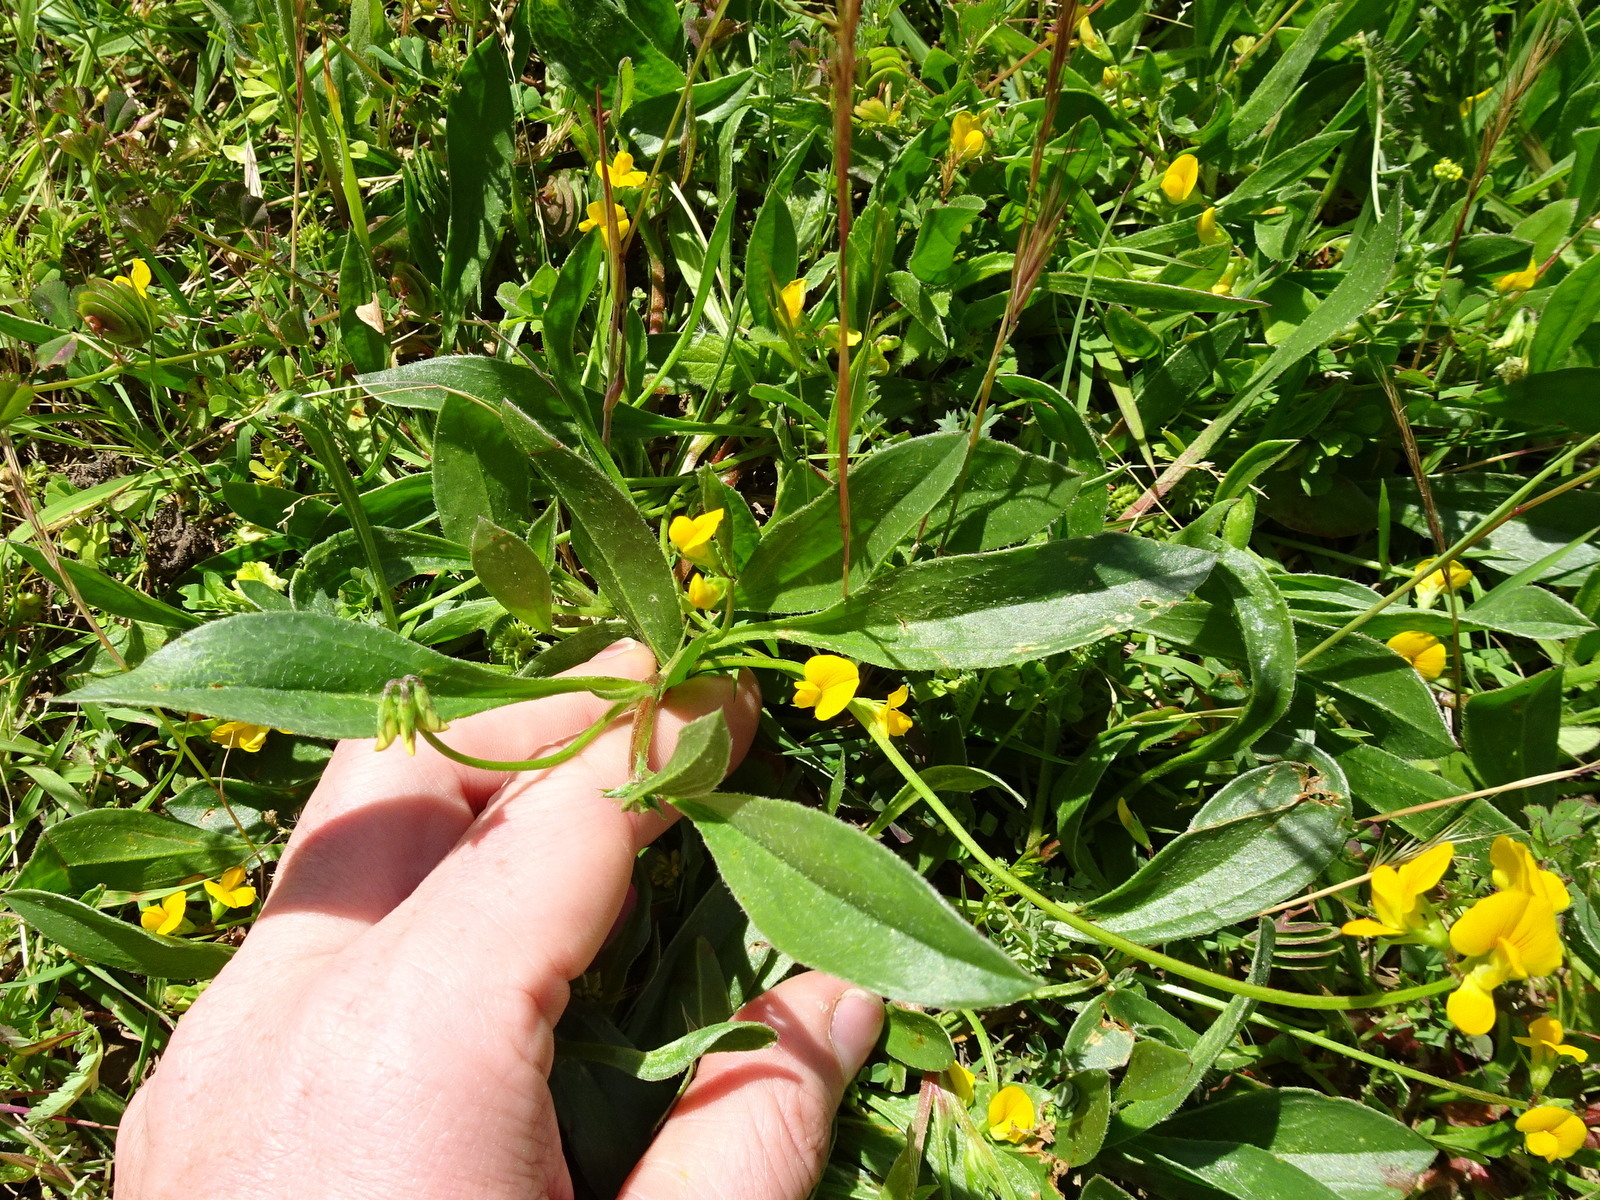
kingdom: Plantae
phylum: Tracheophyta
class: Magnoliopsida
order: Fabales
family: Fabaceae
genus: Scorpiurus
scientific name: Scorpiurus muricatus
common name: Caterpillar-plant
